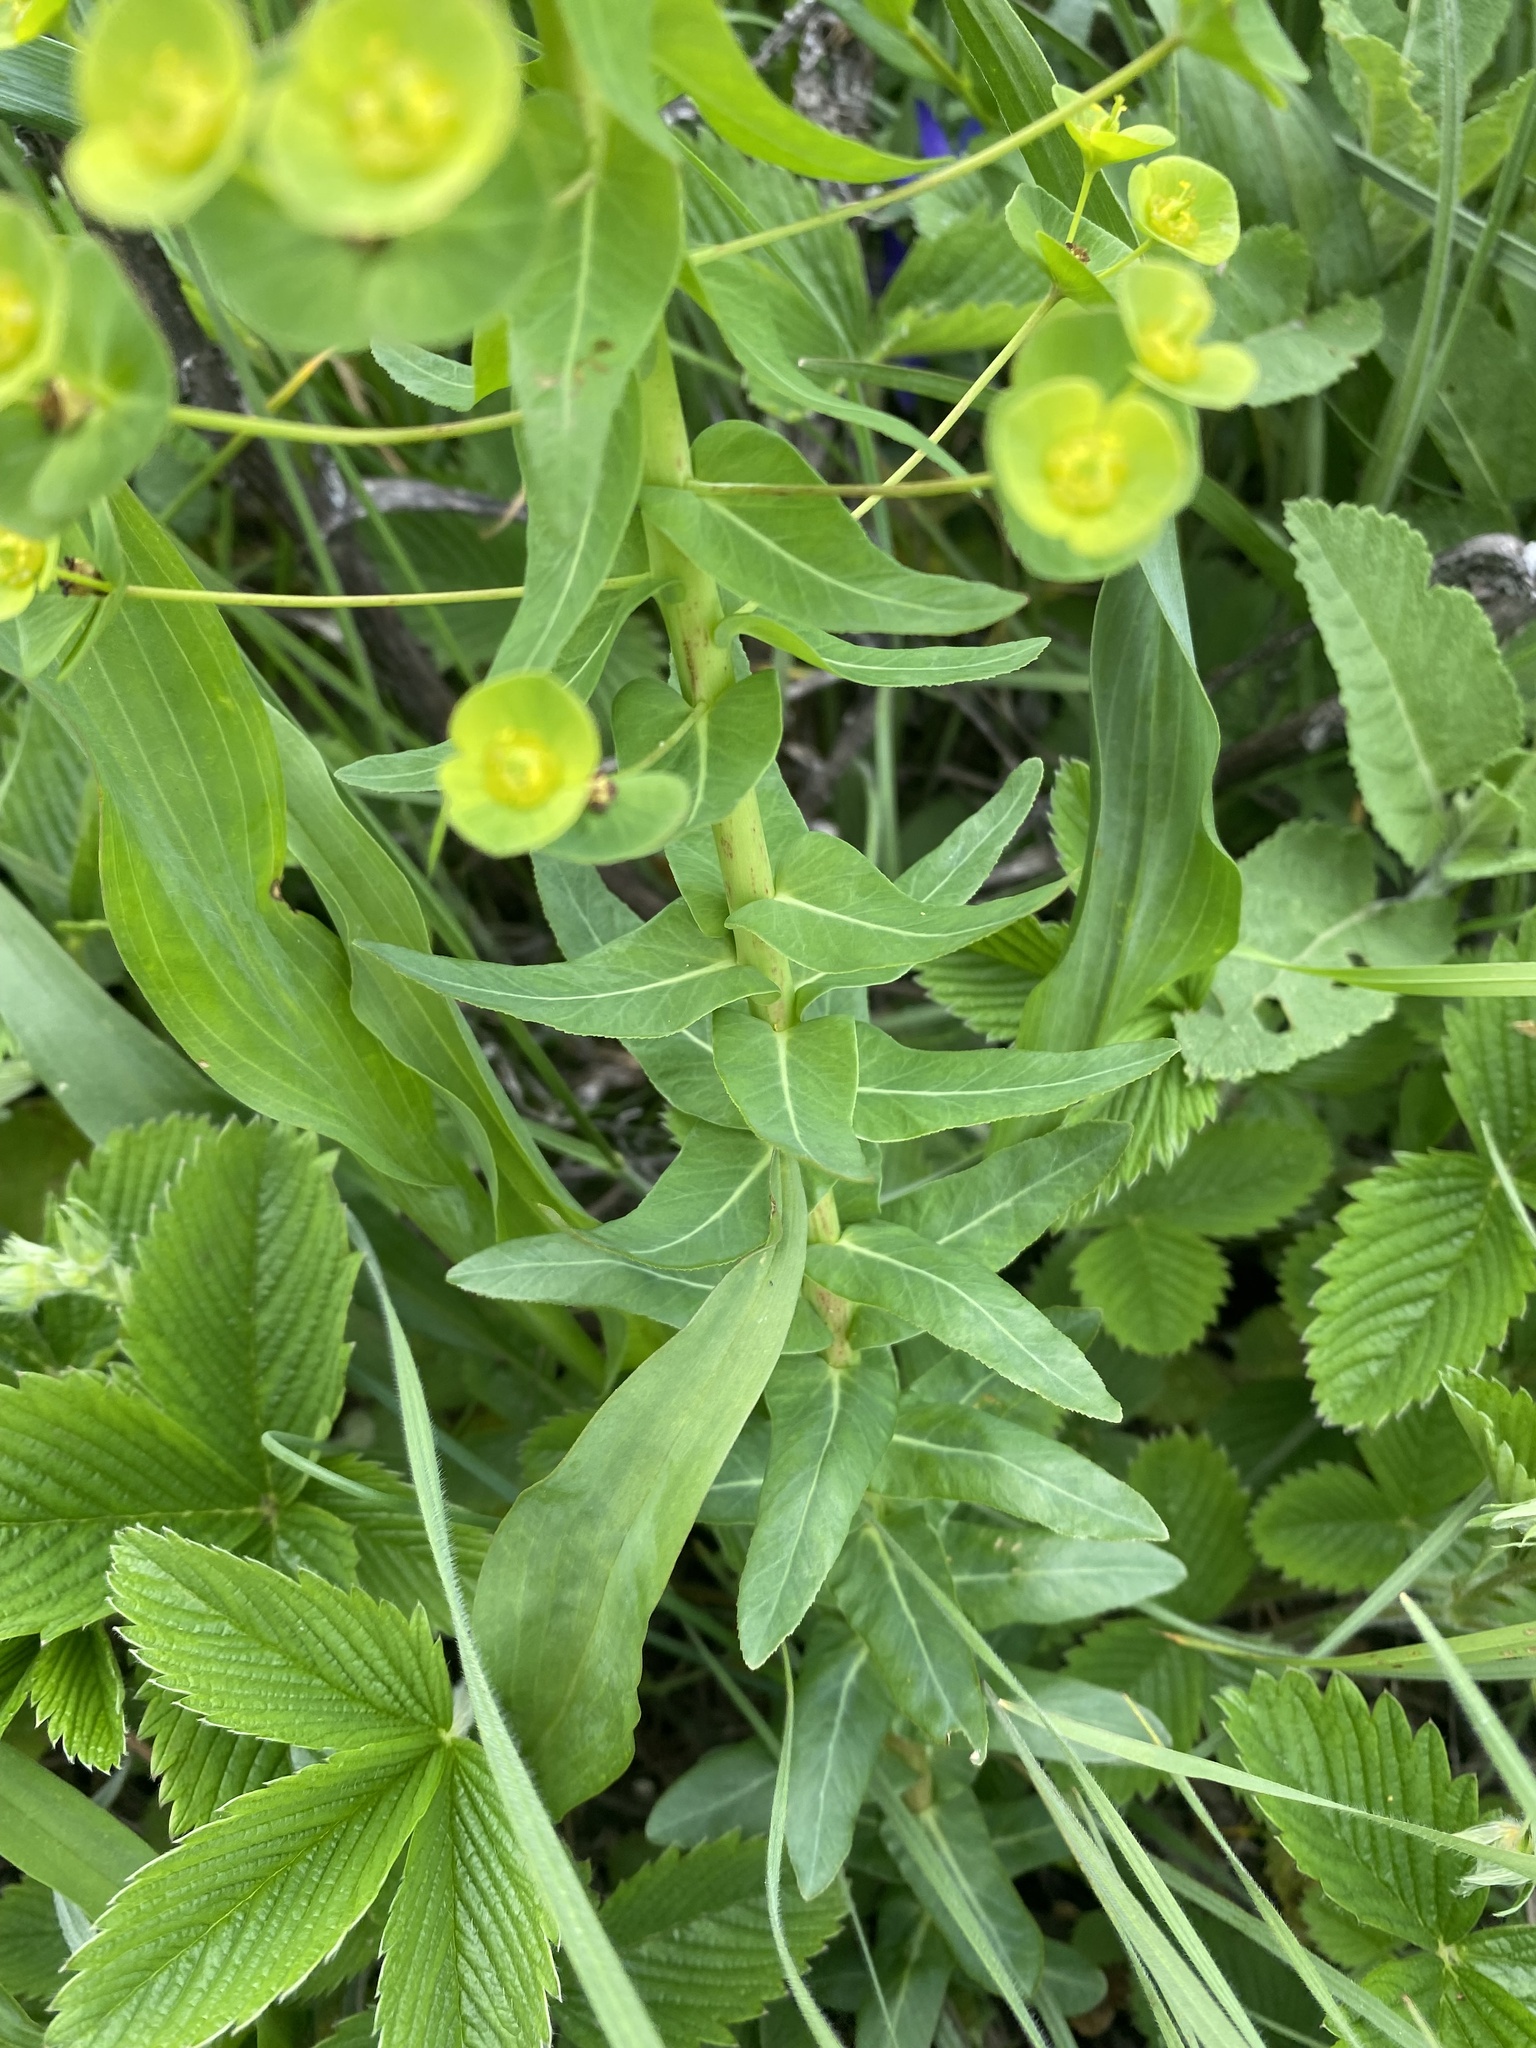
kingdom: Plantae
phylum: Tracheophyta
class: Magnoliopsida
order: Malpighiales
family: Euphorbiaceae
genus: Euphorbia
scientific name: Euphorbia condylocarpa
